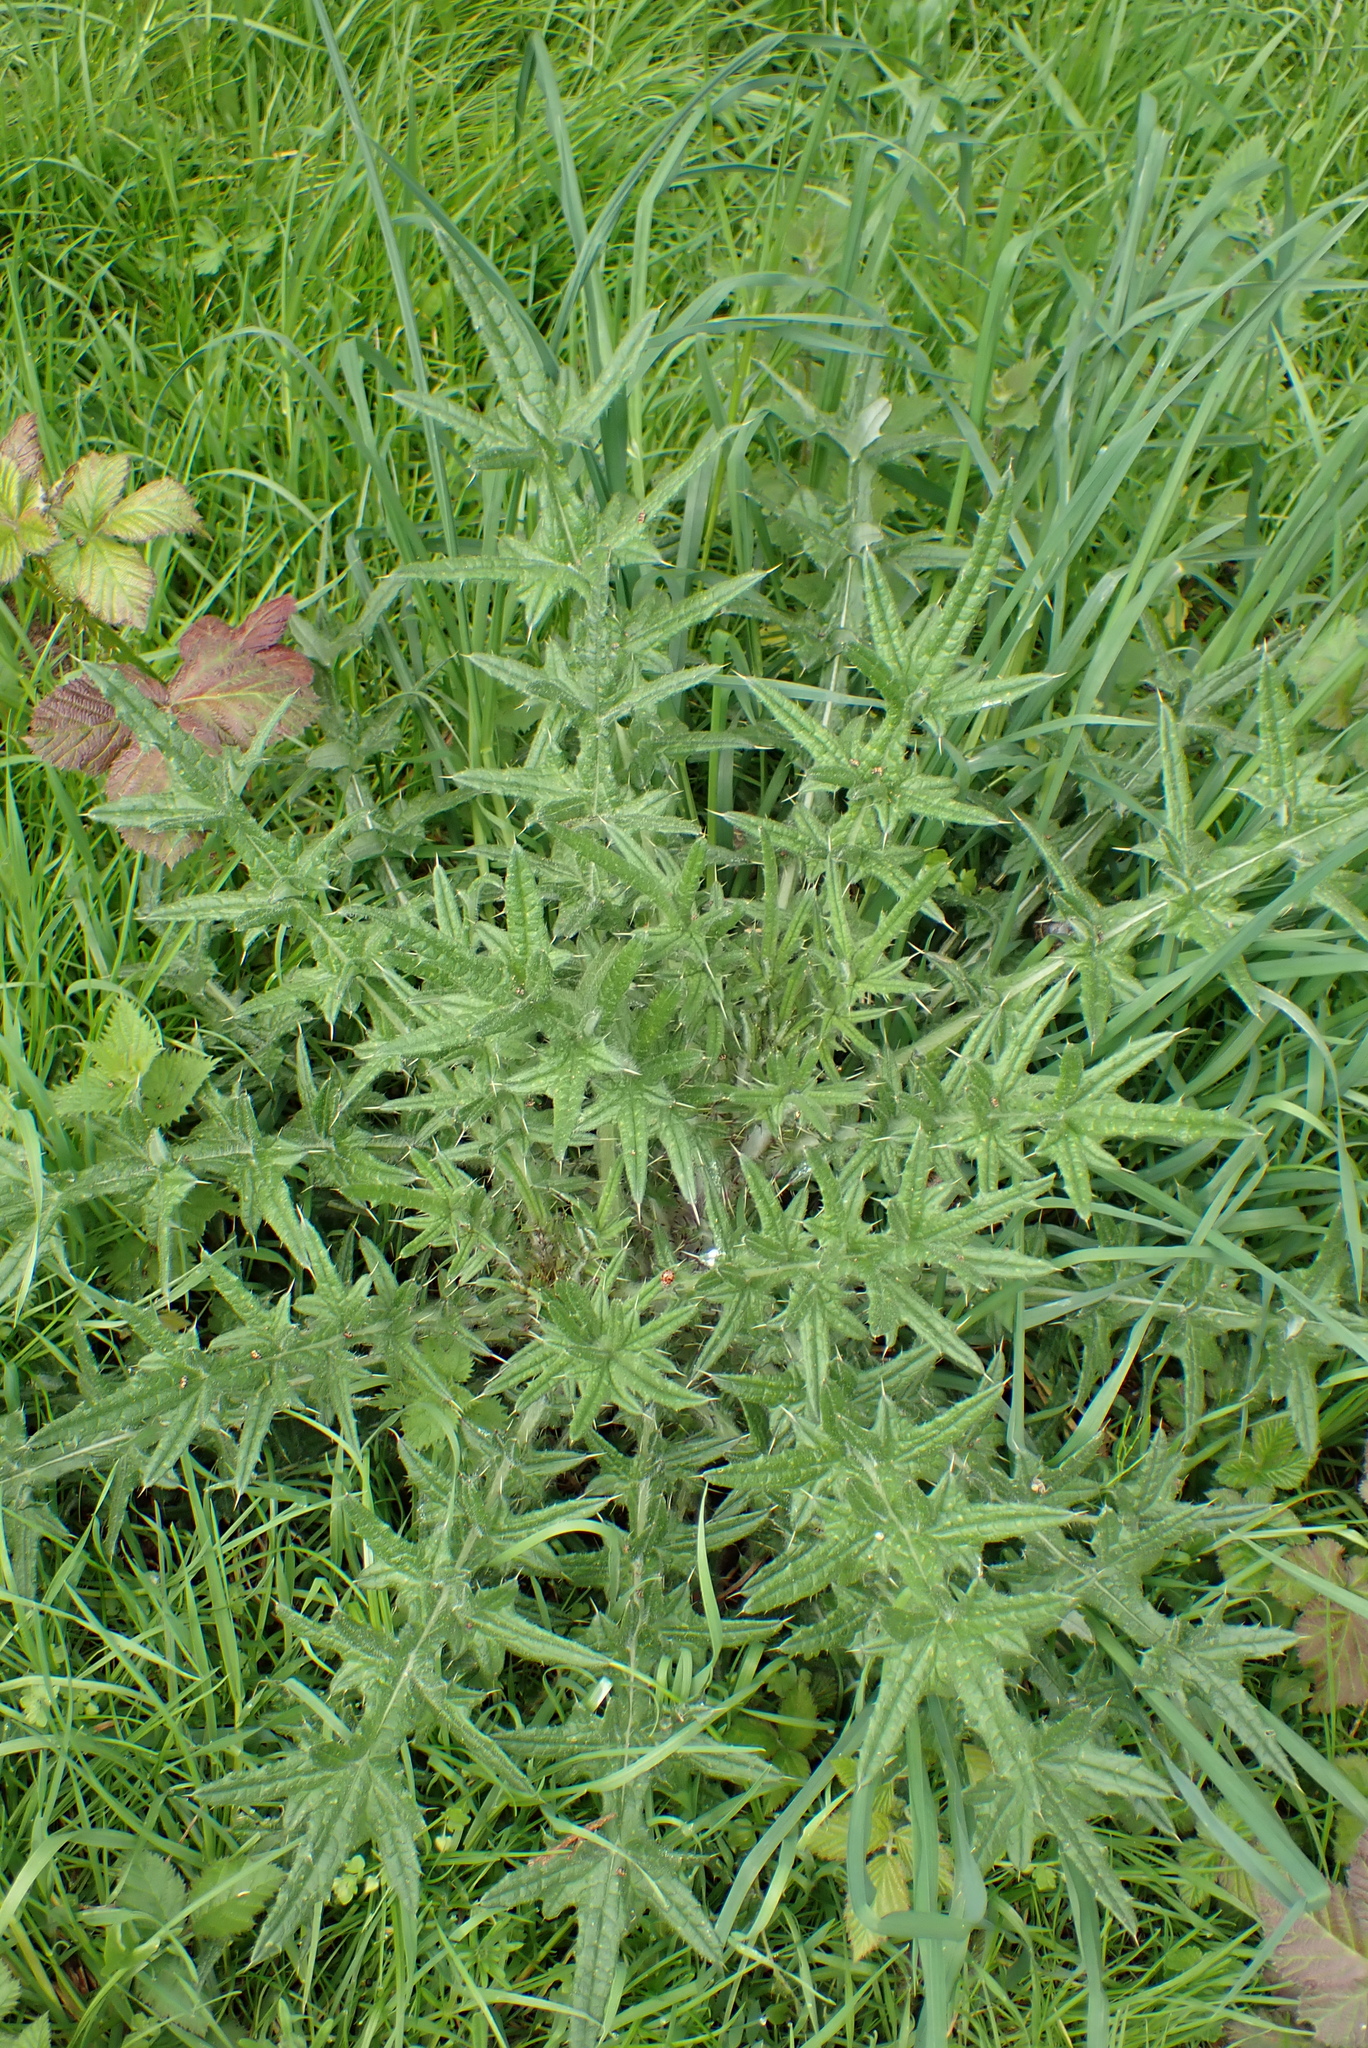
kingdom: Plantae
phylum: Tracheophyta
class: Magnoliopsida
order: Asterales
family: Asteraceae
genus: Cirsium
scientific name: Cirsium vulgare
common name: Bull thistle
